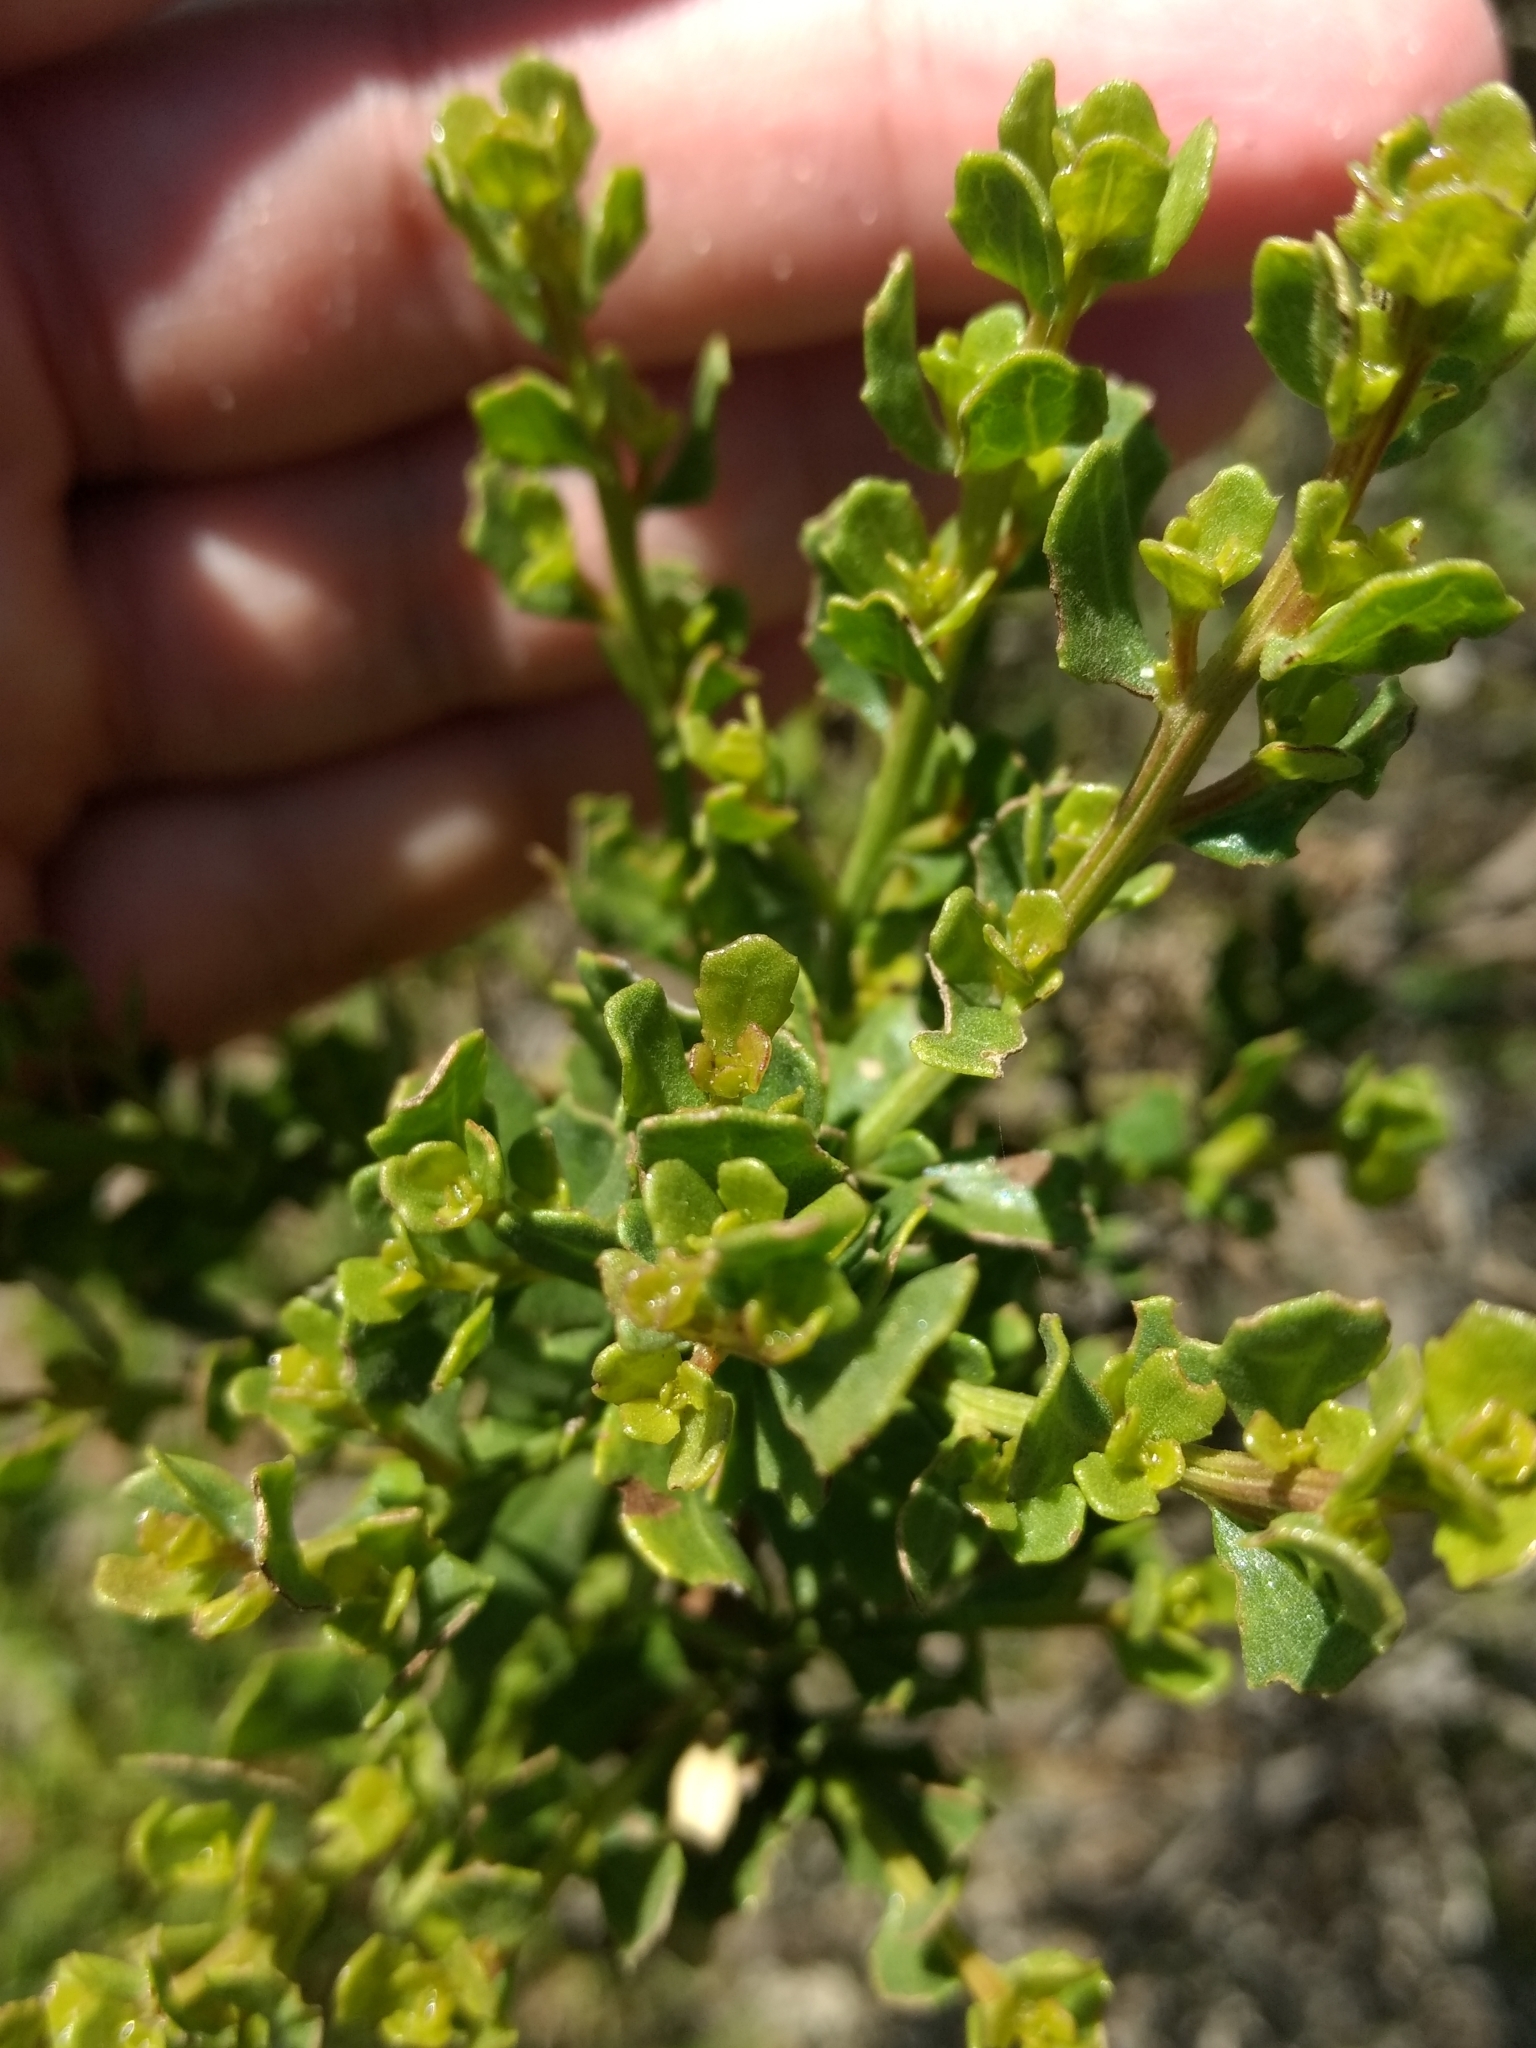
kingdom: Plantae
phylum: Tracheophyta
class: Magnoliopsida
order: Asterales
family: Asteraceae
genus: Baccharis
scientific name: Baccharis pilularis
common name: Coyotebrush
